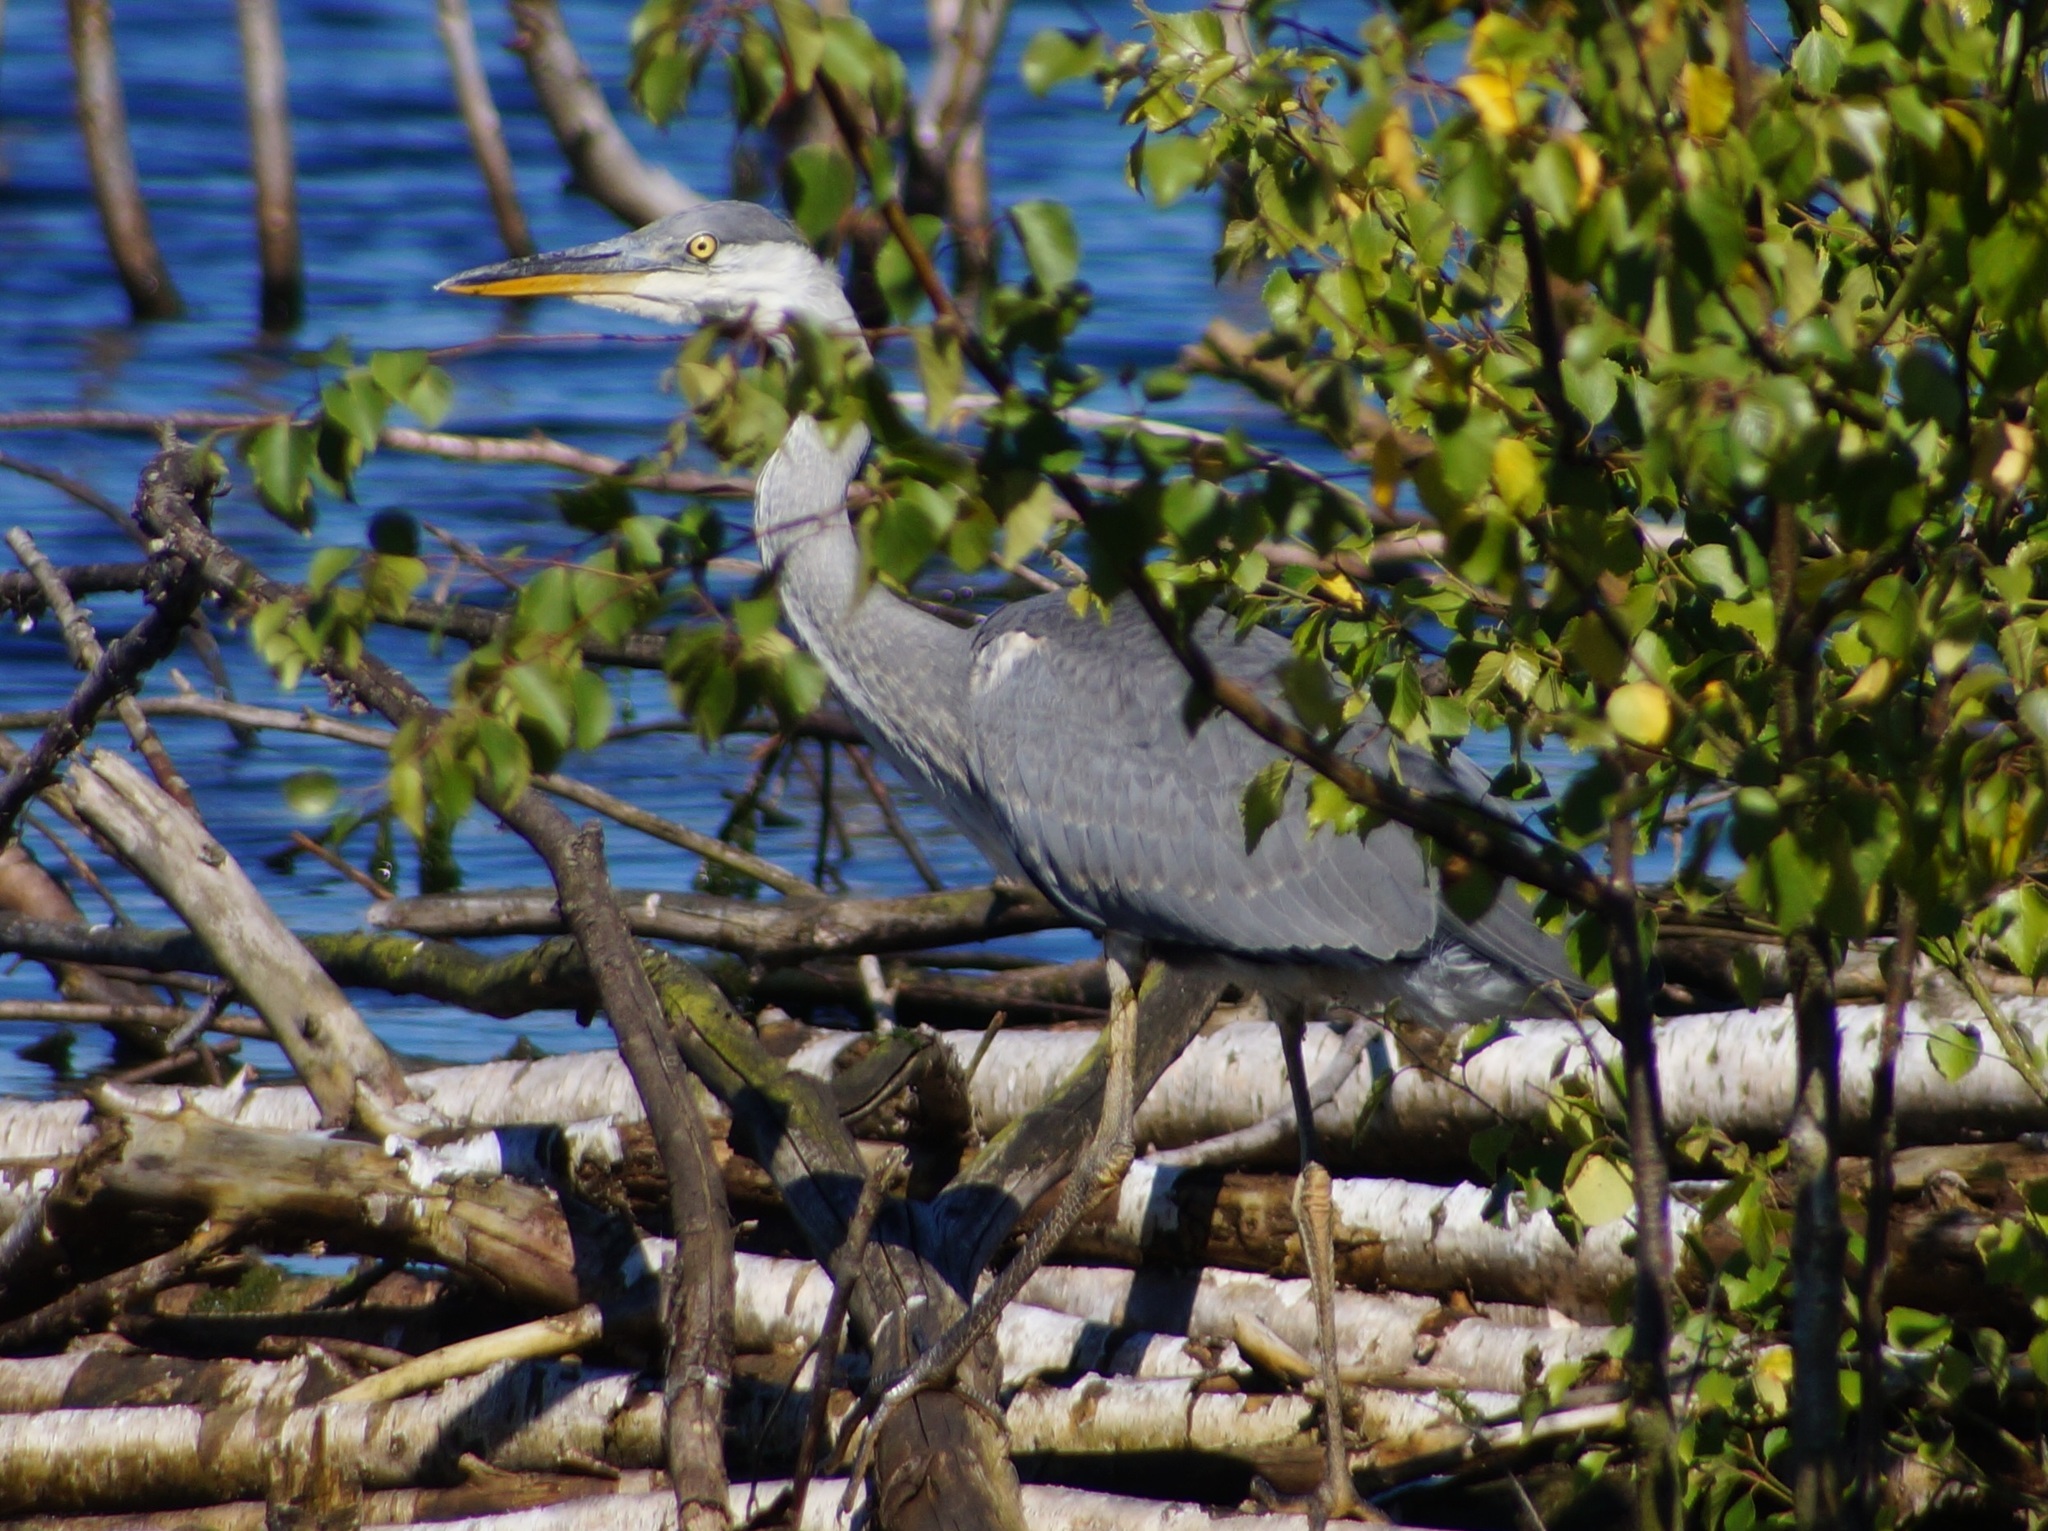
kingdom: Animalia
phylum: Chordata
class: Aves
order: Pelecaniformes
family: Ardeidae
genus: Ardea
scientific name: Ardea cinerea
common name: Grey heron
